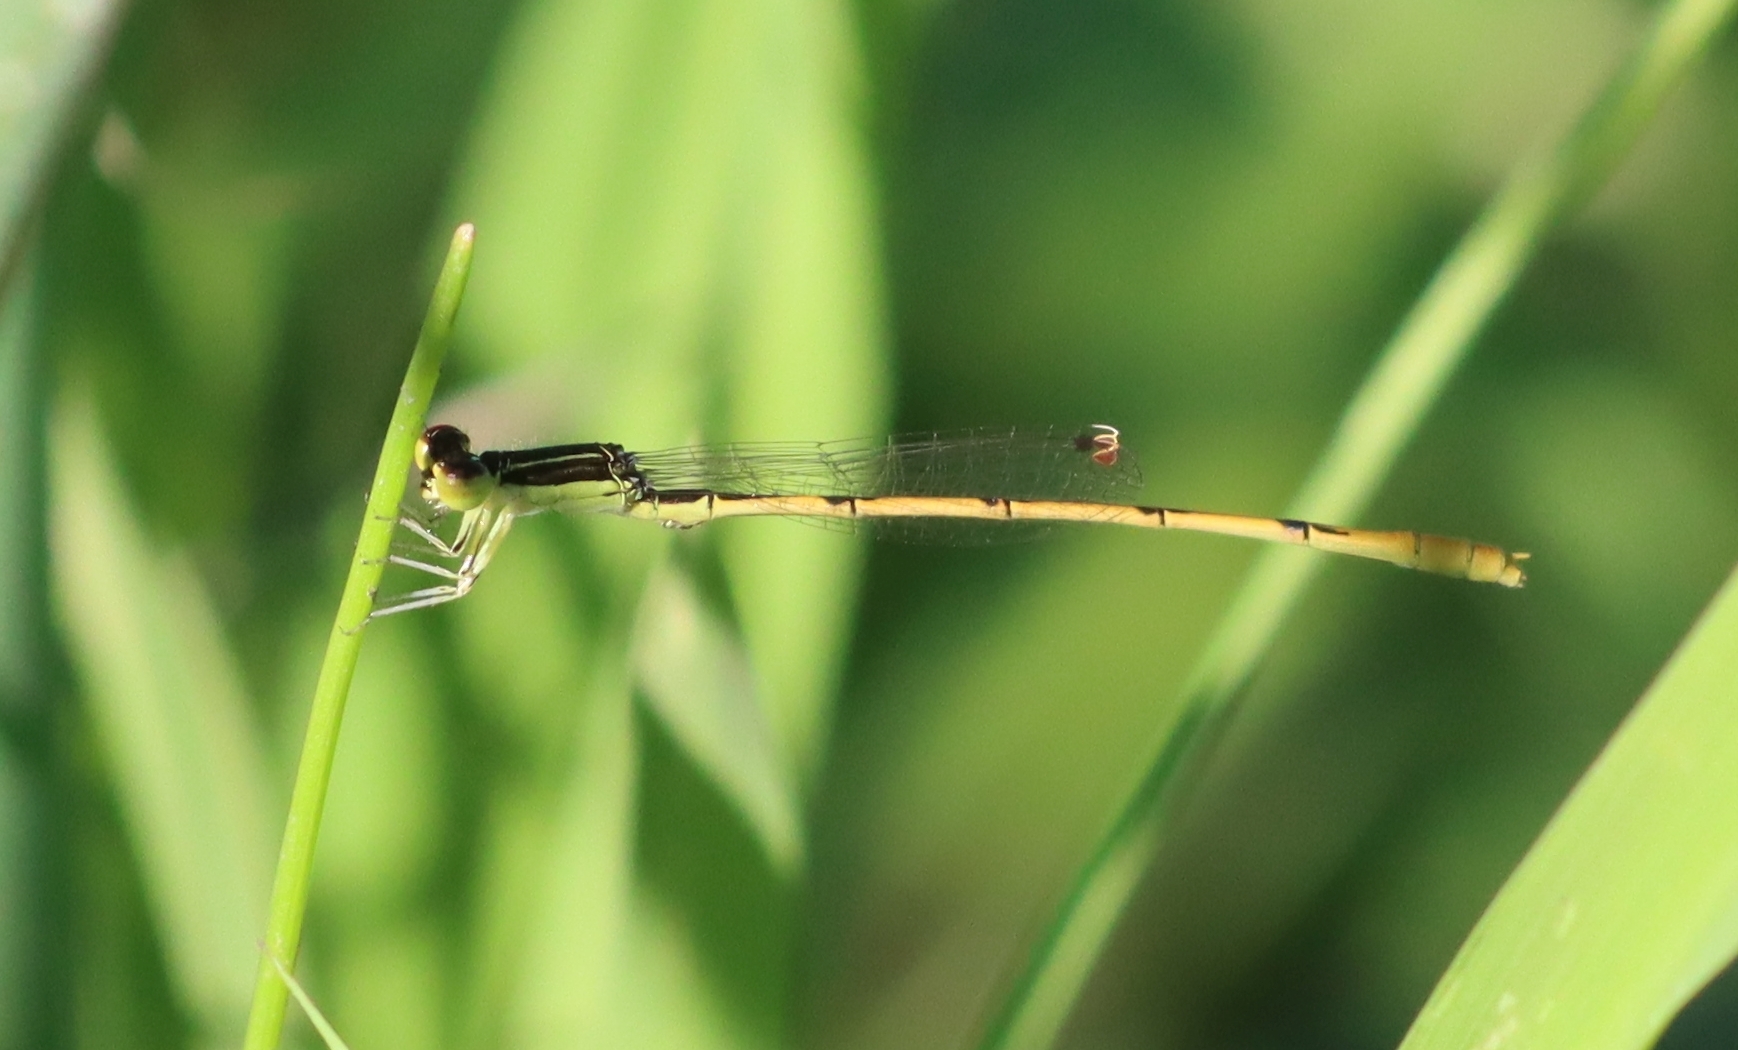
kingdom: Animalia
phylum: Arthropoda
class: Insecta
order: Odonata
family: Coenagrionidae
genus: Ischnura
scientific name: Ischnura hastata
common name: Citrine forktail
